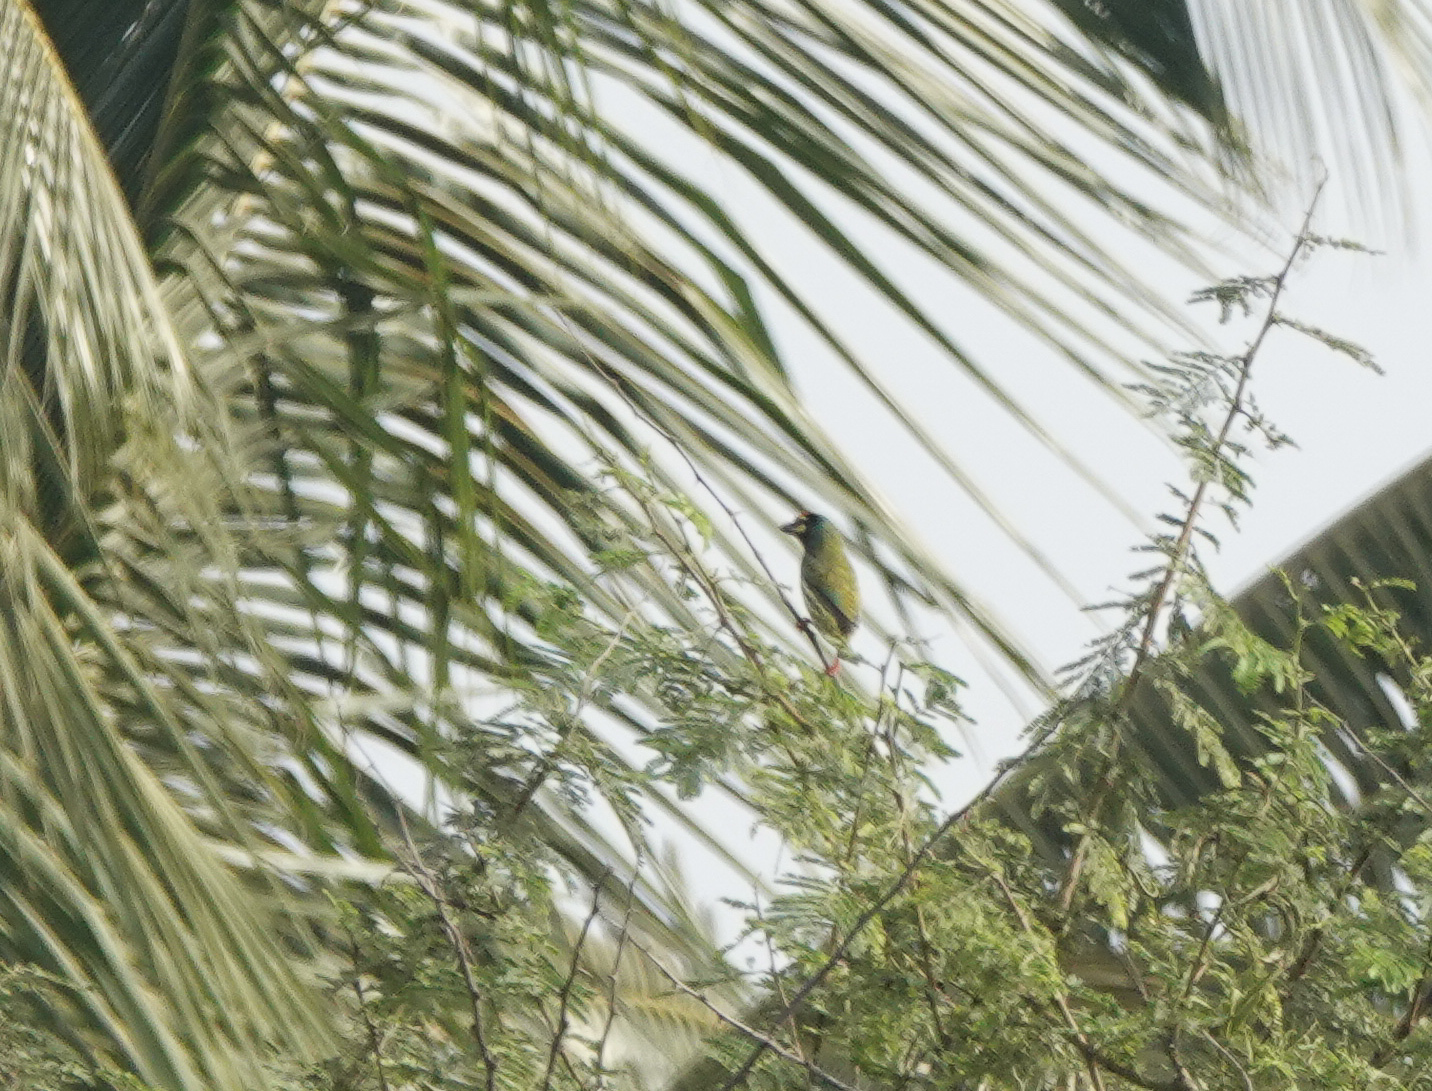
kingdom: Animalia
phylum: Chordata
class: Aves
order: Piciformes
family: Megalaimidae
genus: Psilopogon
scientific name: Psilopogon haemacephalus
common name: Coppersmith barbet
